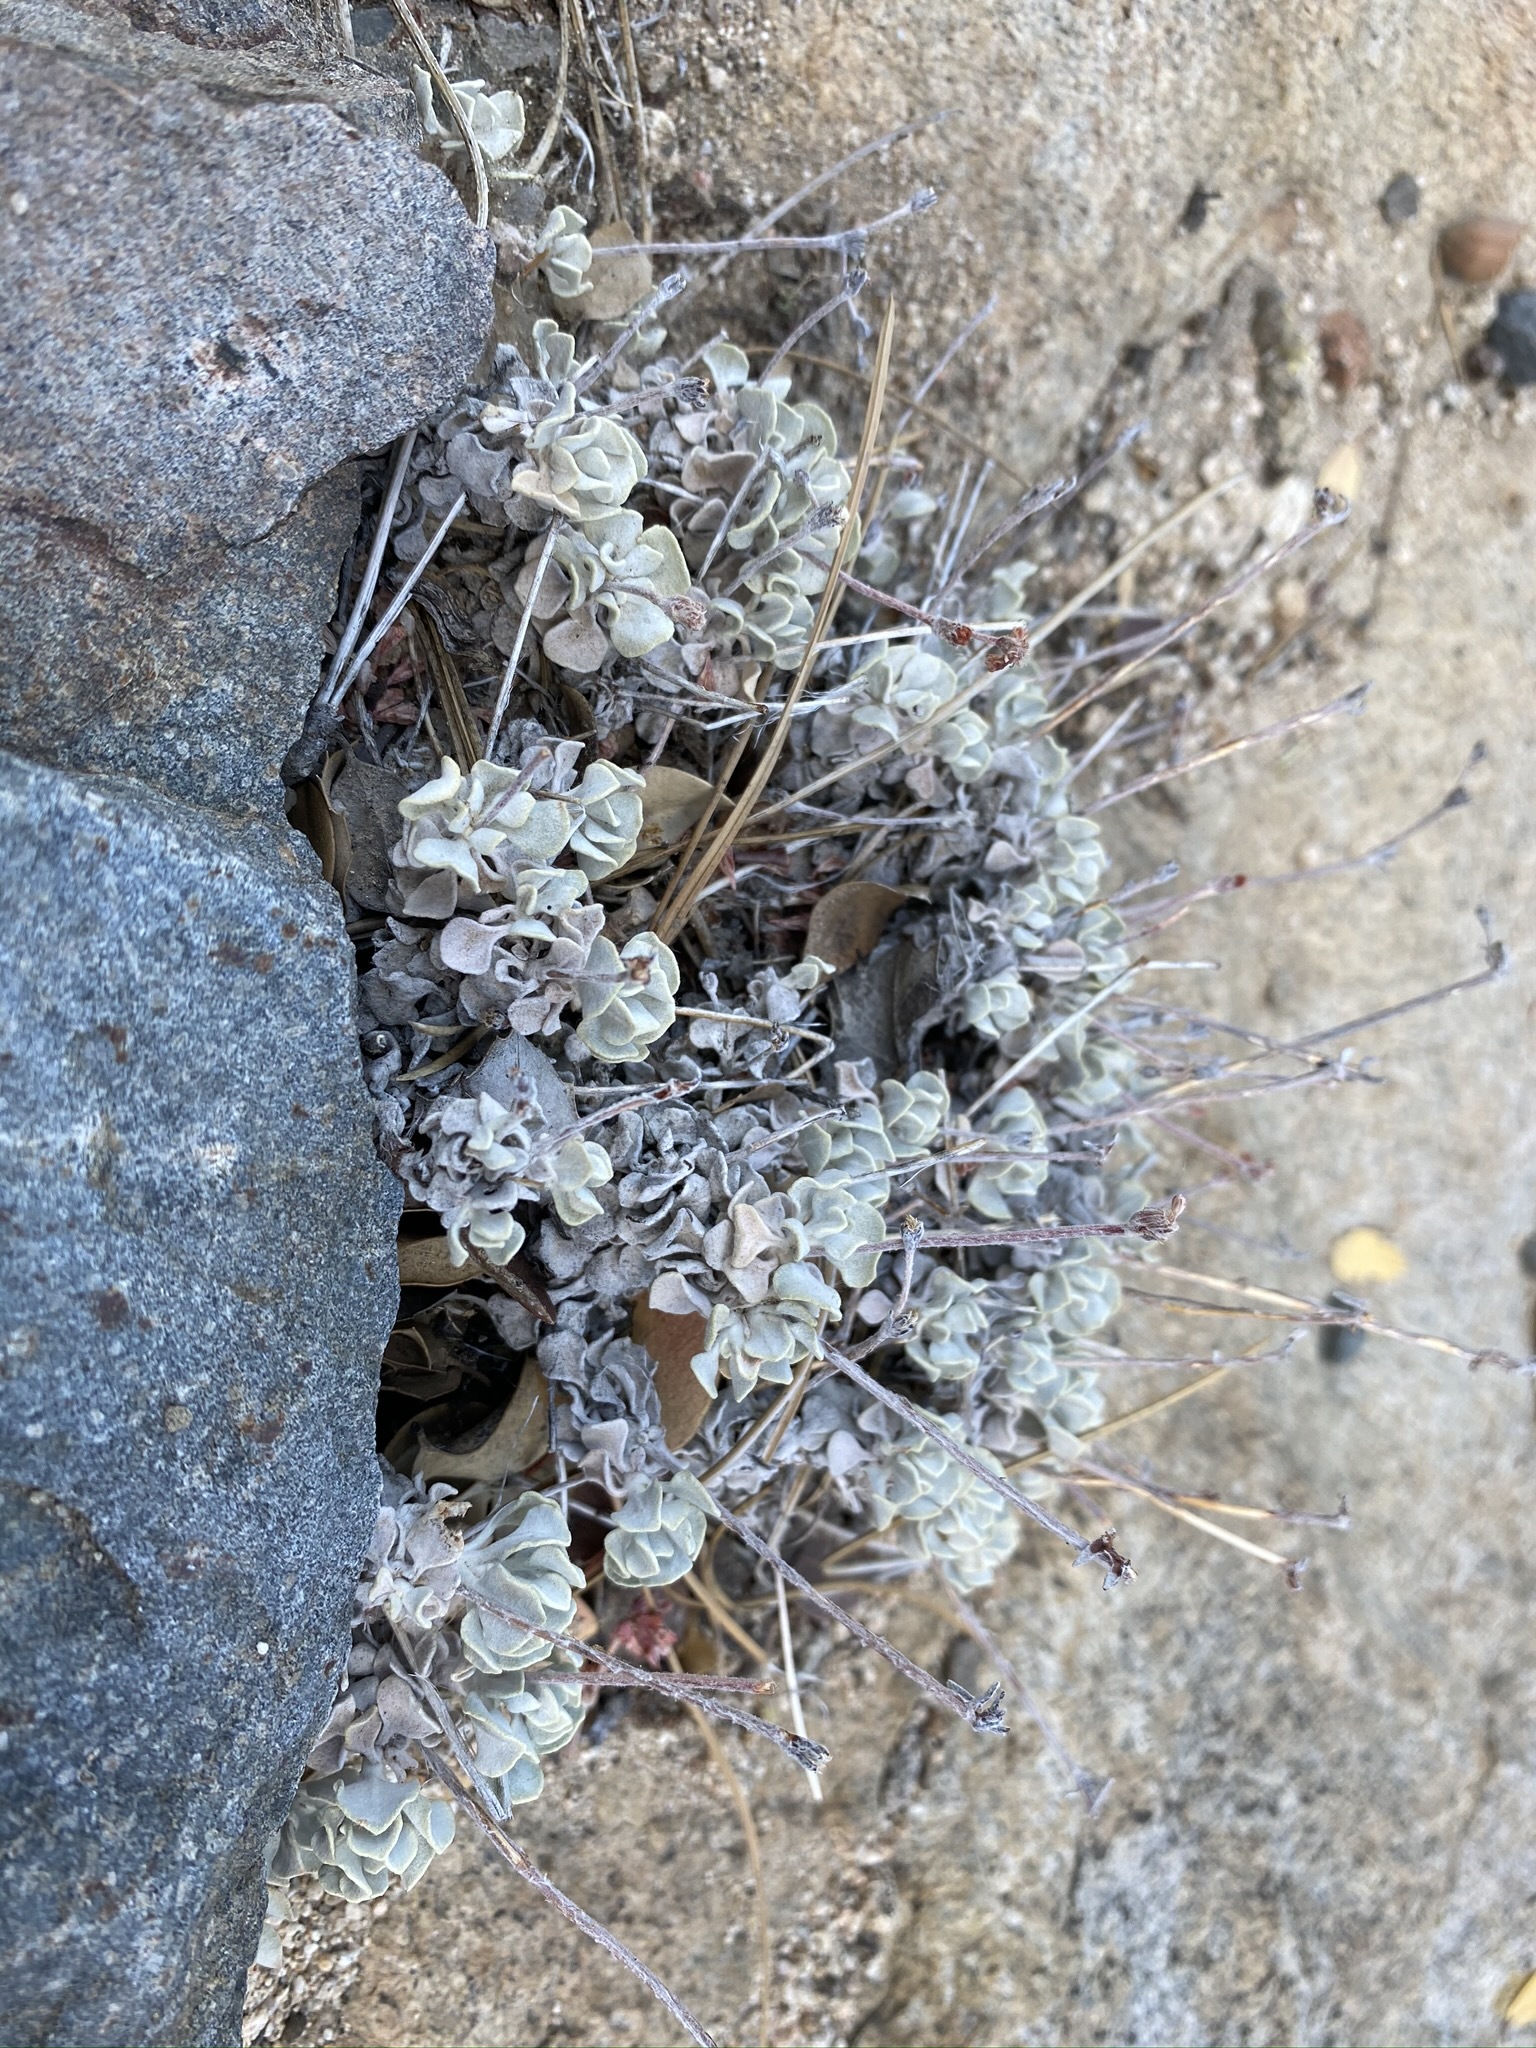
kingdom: Plantae
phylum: Tracheophyta
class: Magnoliopsida
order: Caryophyllales
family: Polygonaceae
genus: Eriogonum
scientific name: Eriogonum saxatile
